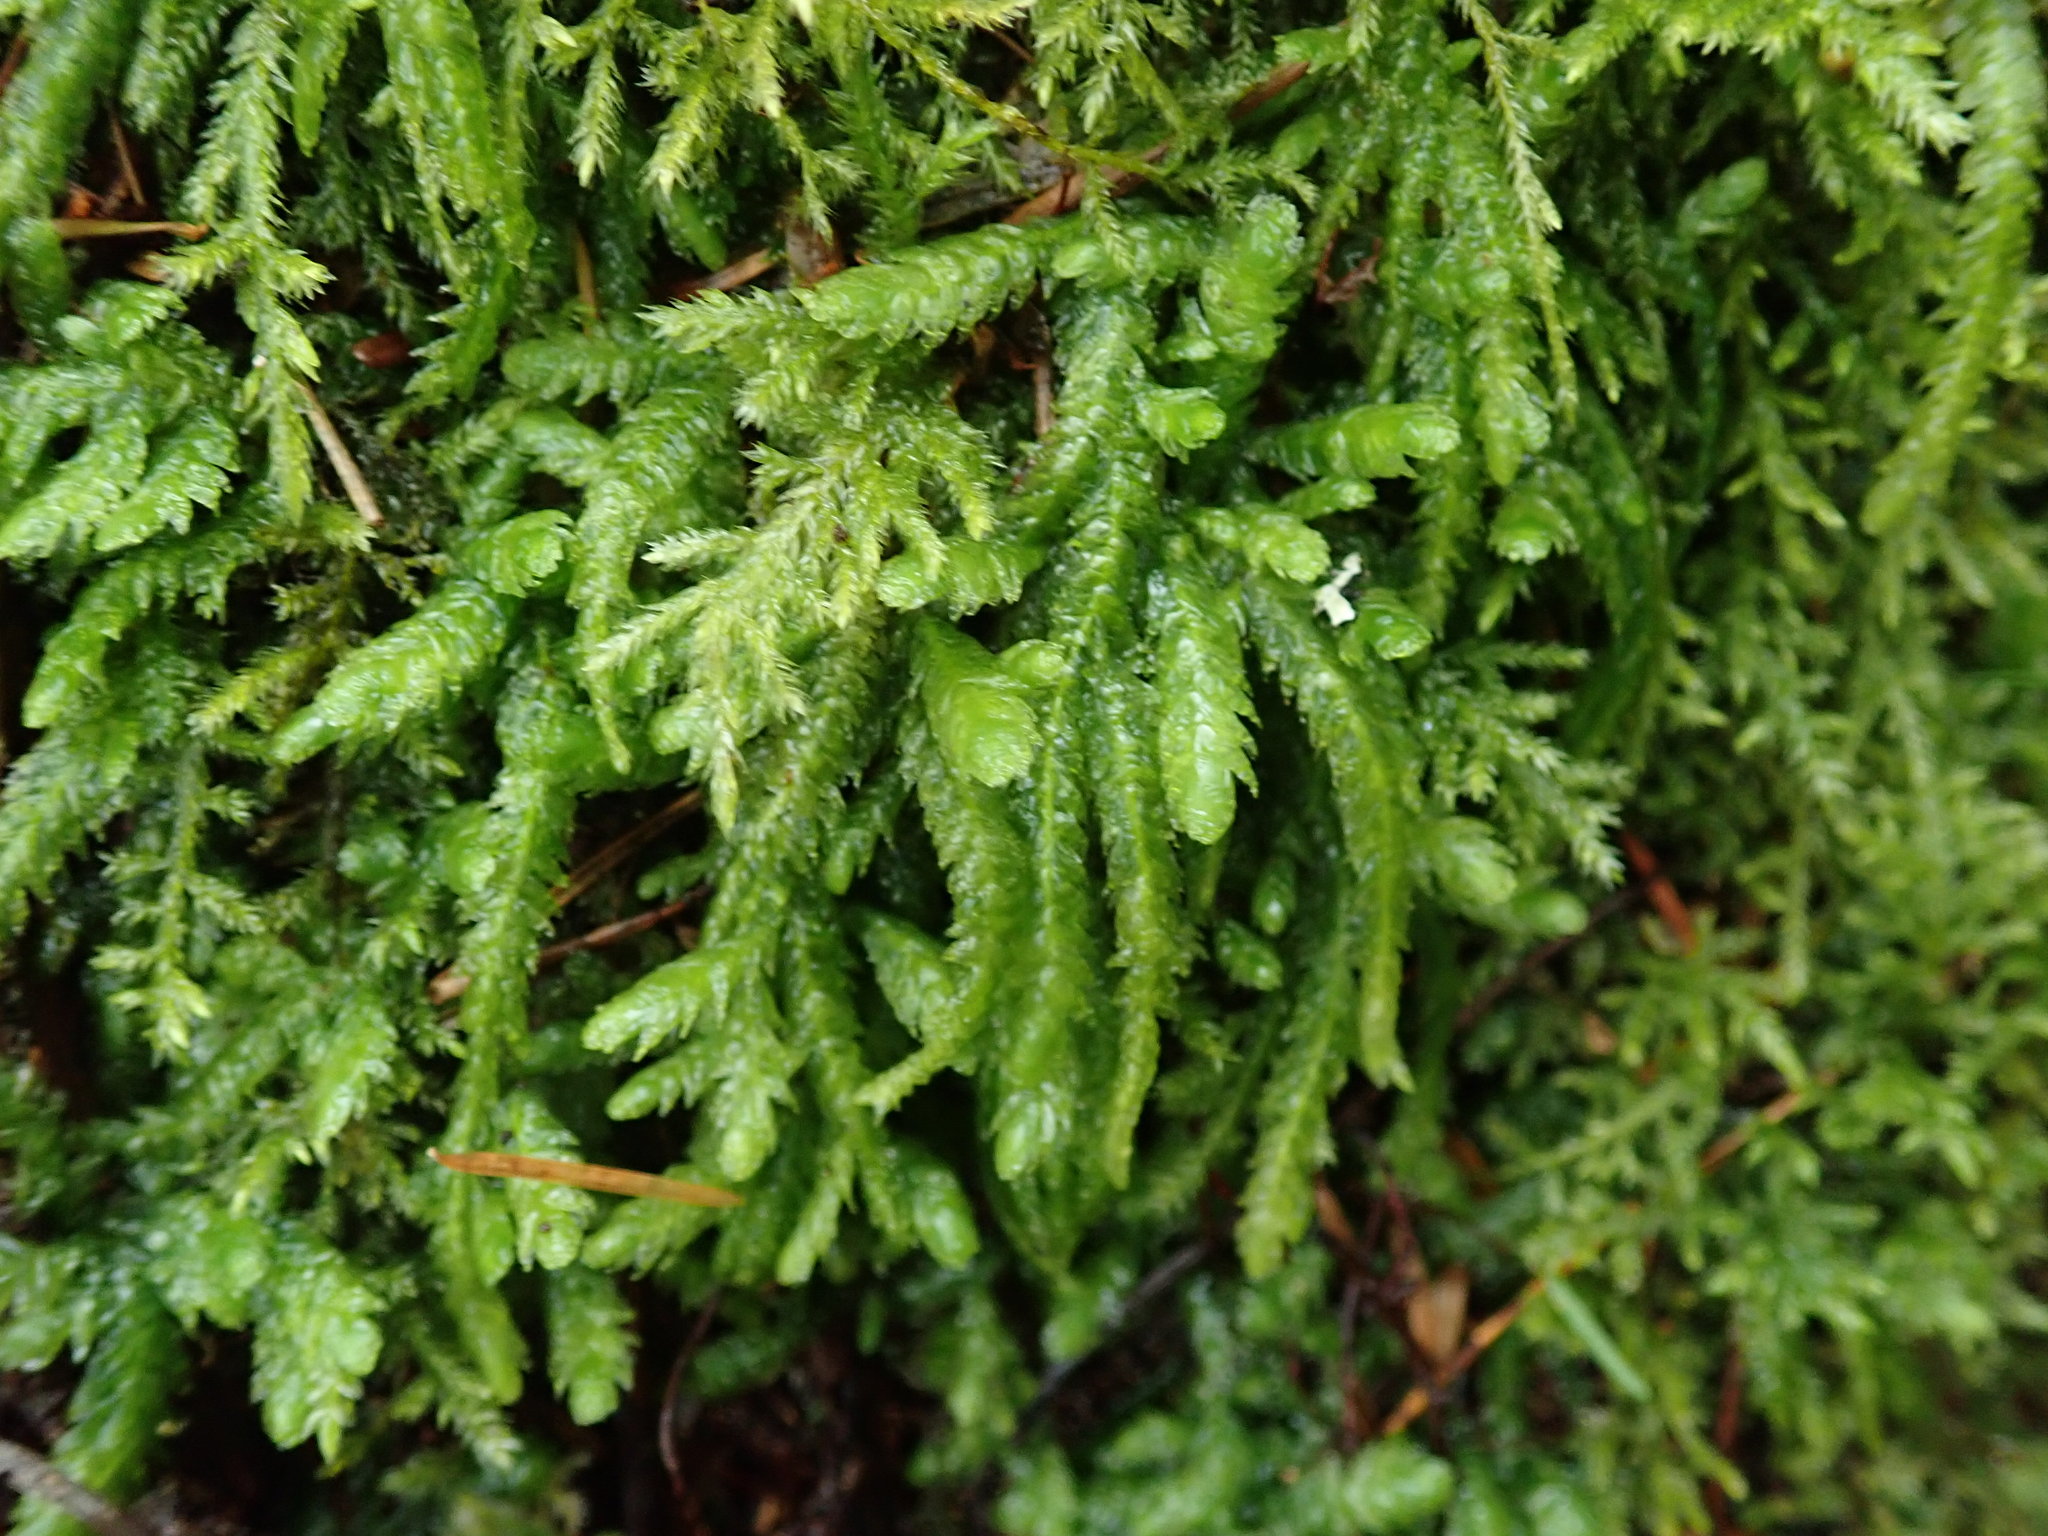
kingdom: Plantae
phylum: Bryophyta
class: Bryopsida
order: Hypnales
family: Plagiotheciaceae
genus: Plagiothecium
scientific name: Plagiothecium undulatum
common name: Waved silk-moss
